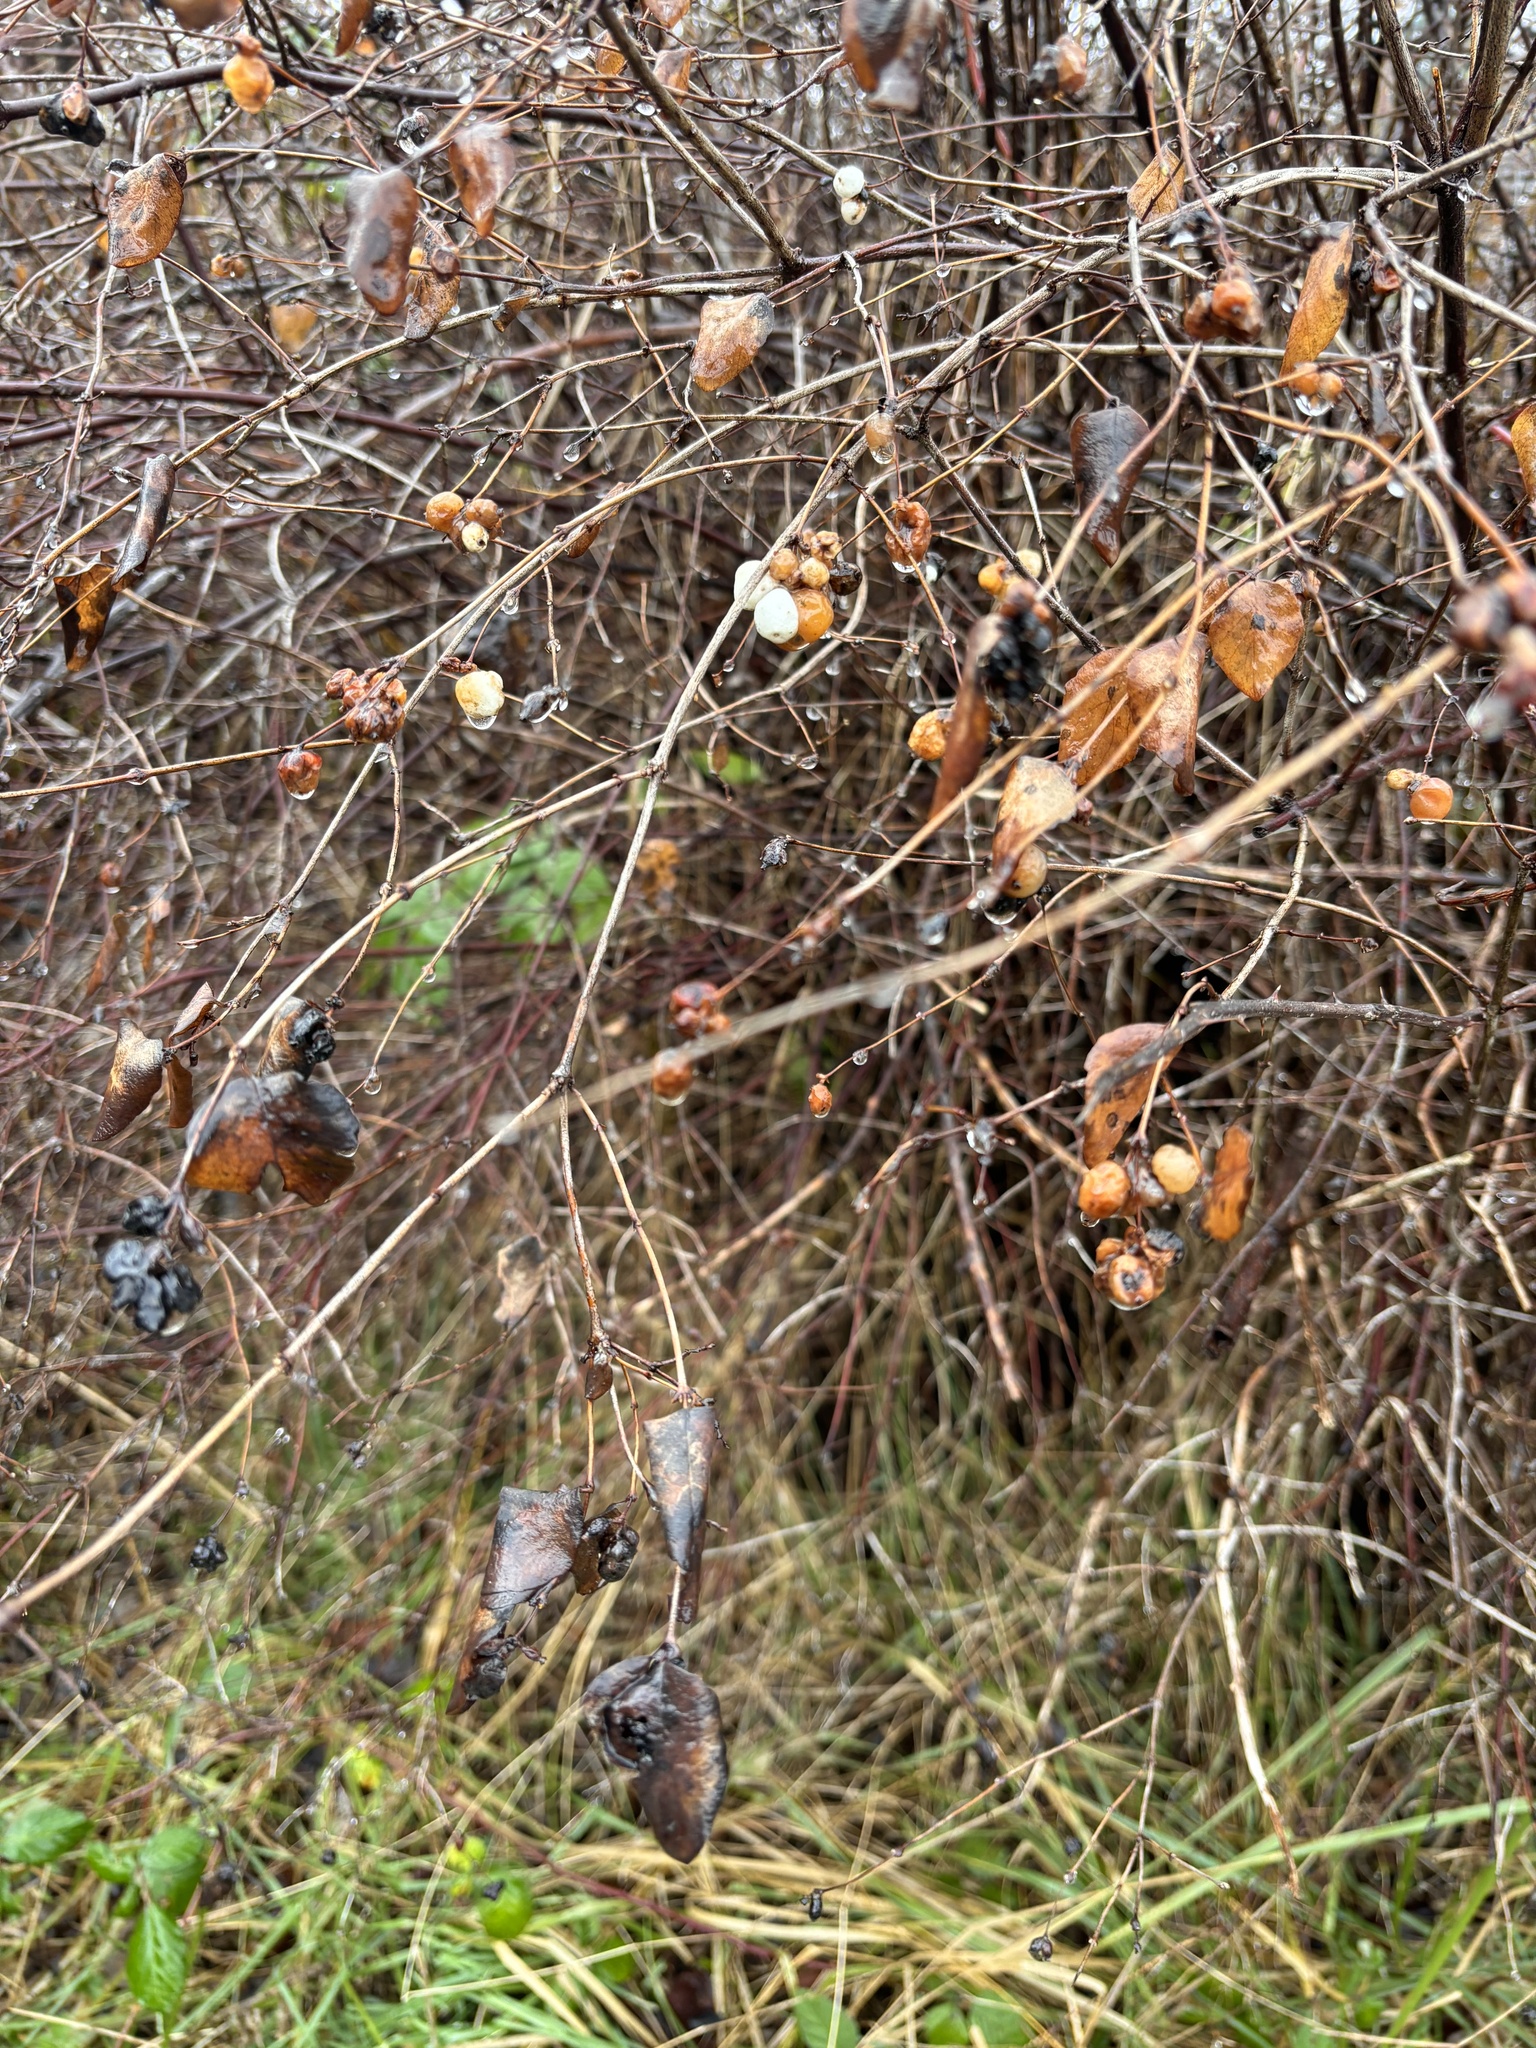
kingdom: Plantae
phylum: Tracheophyta
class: Magnoliopsida
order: Dipsacales
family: Caprifoliaceae
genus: Symphoricarpos
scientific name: Symphoricarpos albus
